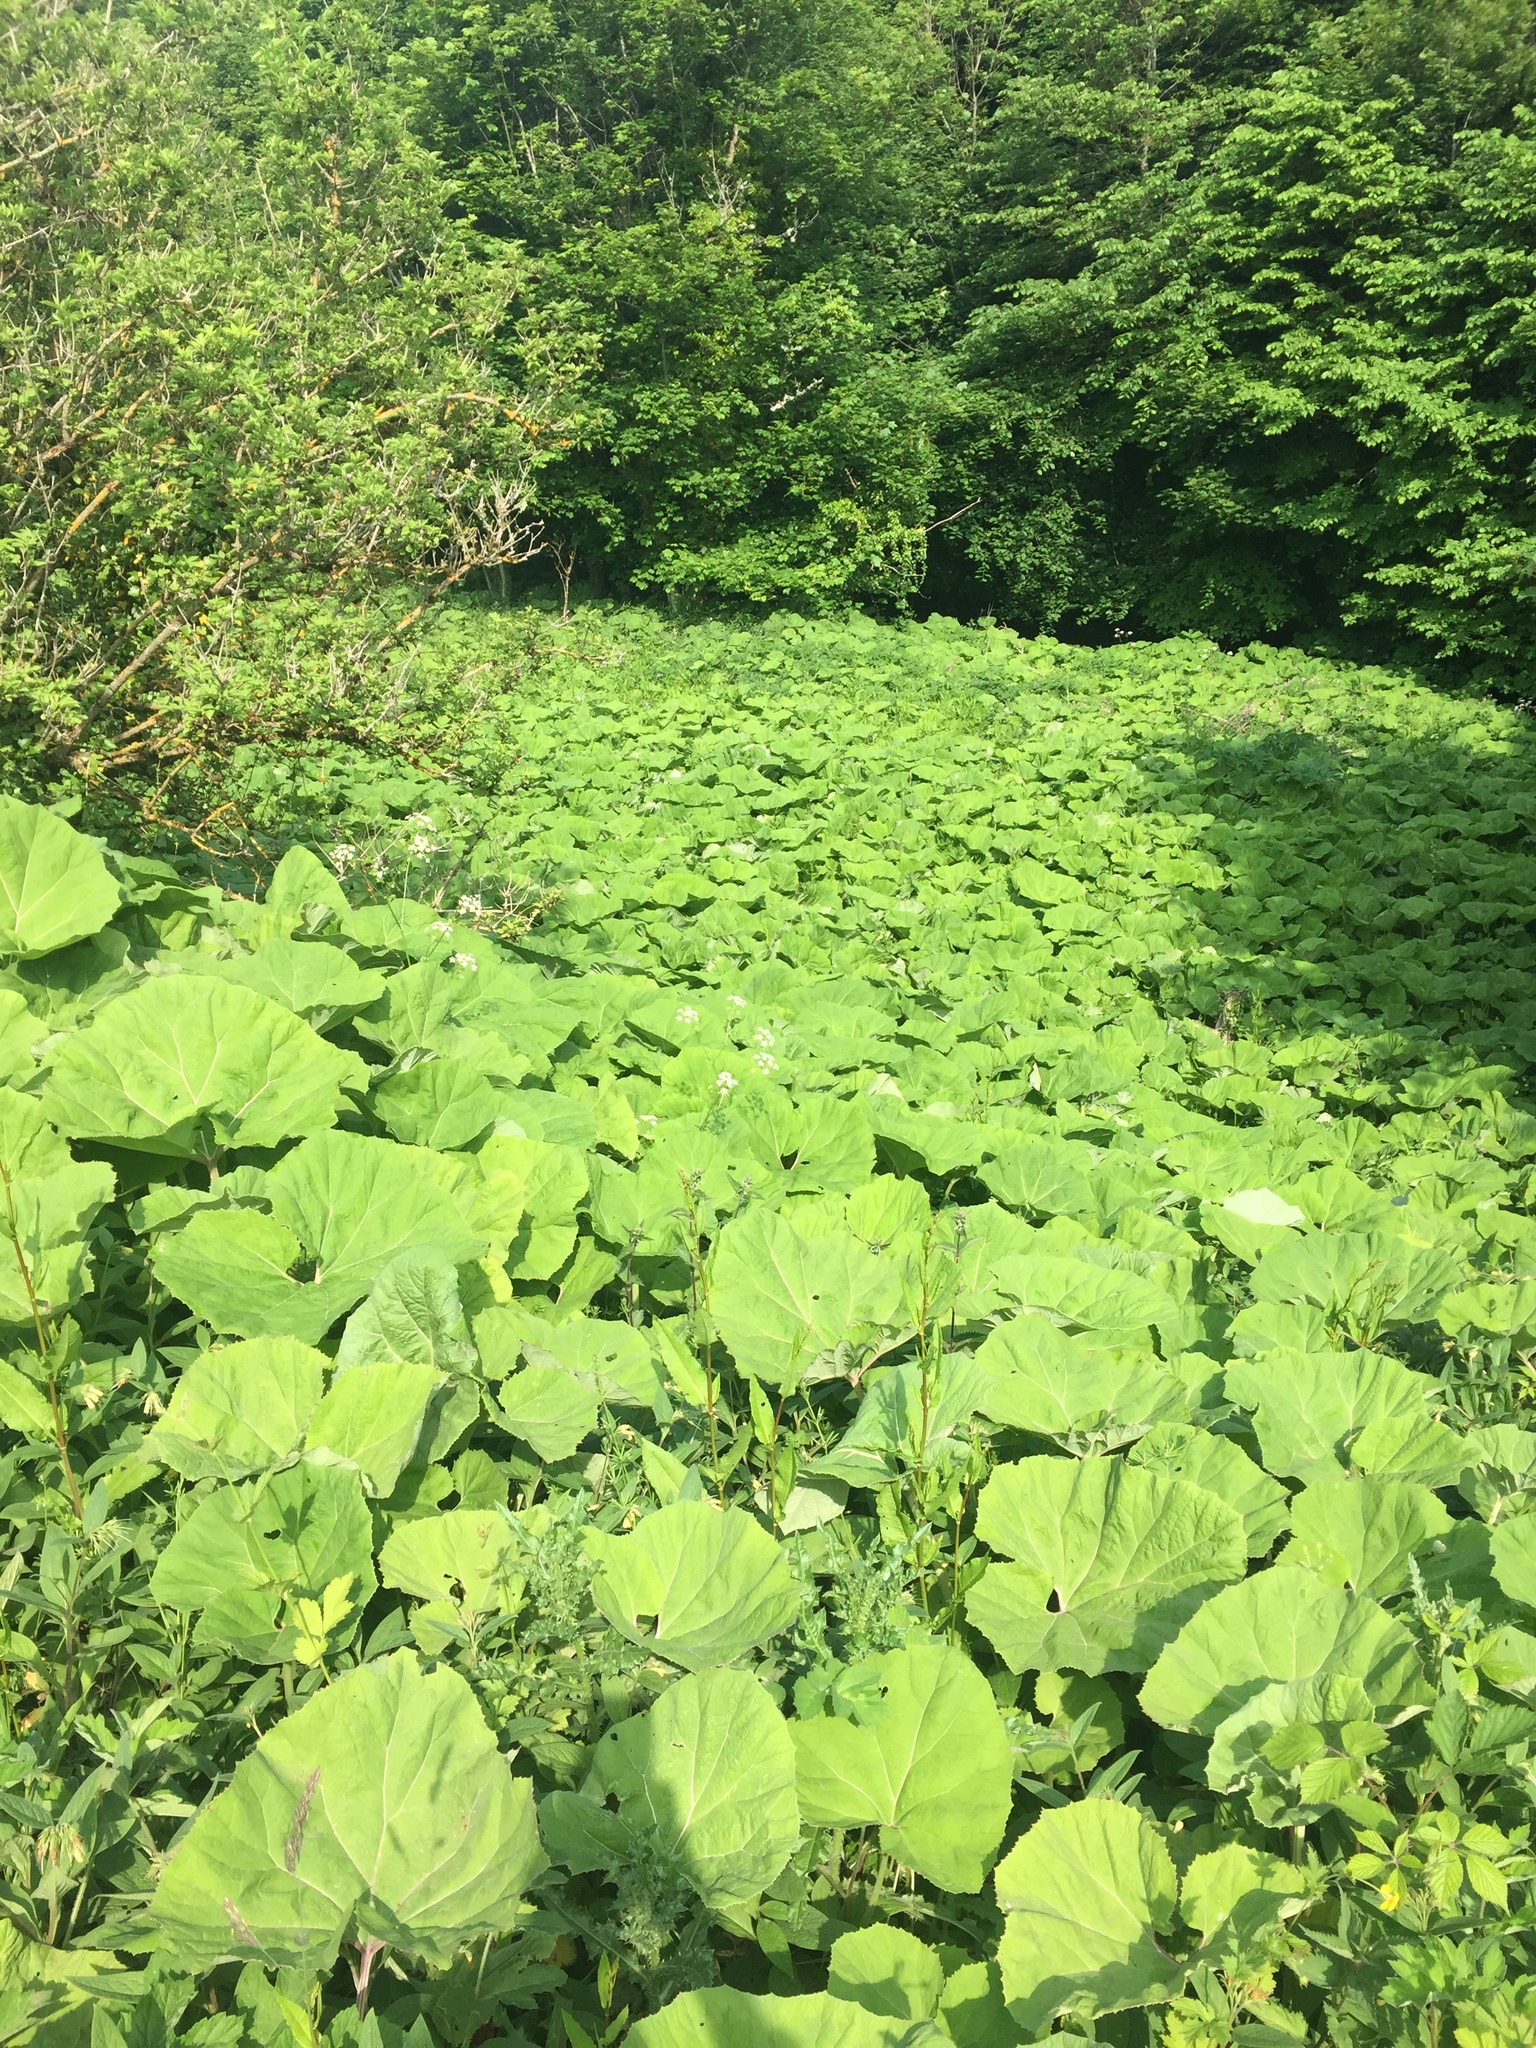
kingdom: Plantae
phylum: Tracheophyta
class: Magnoliopsida
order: Asterales
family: Asteraceae
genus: Petasites
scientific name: Petasites hybridus
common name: Butterbur
